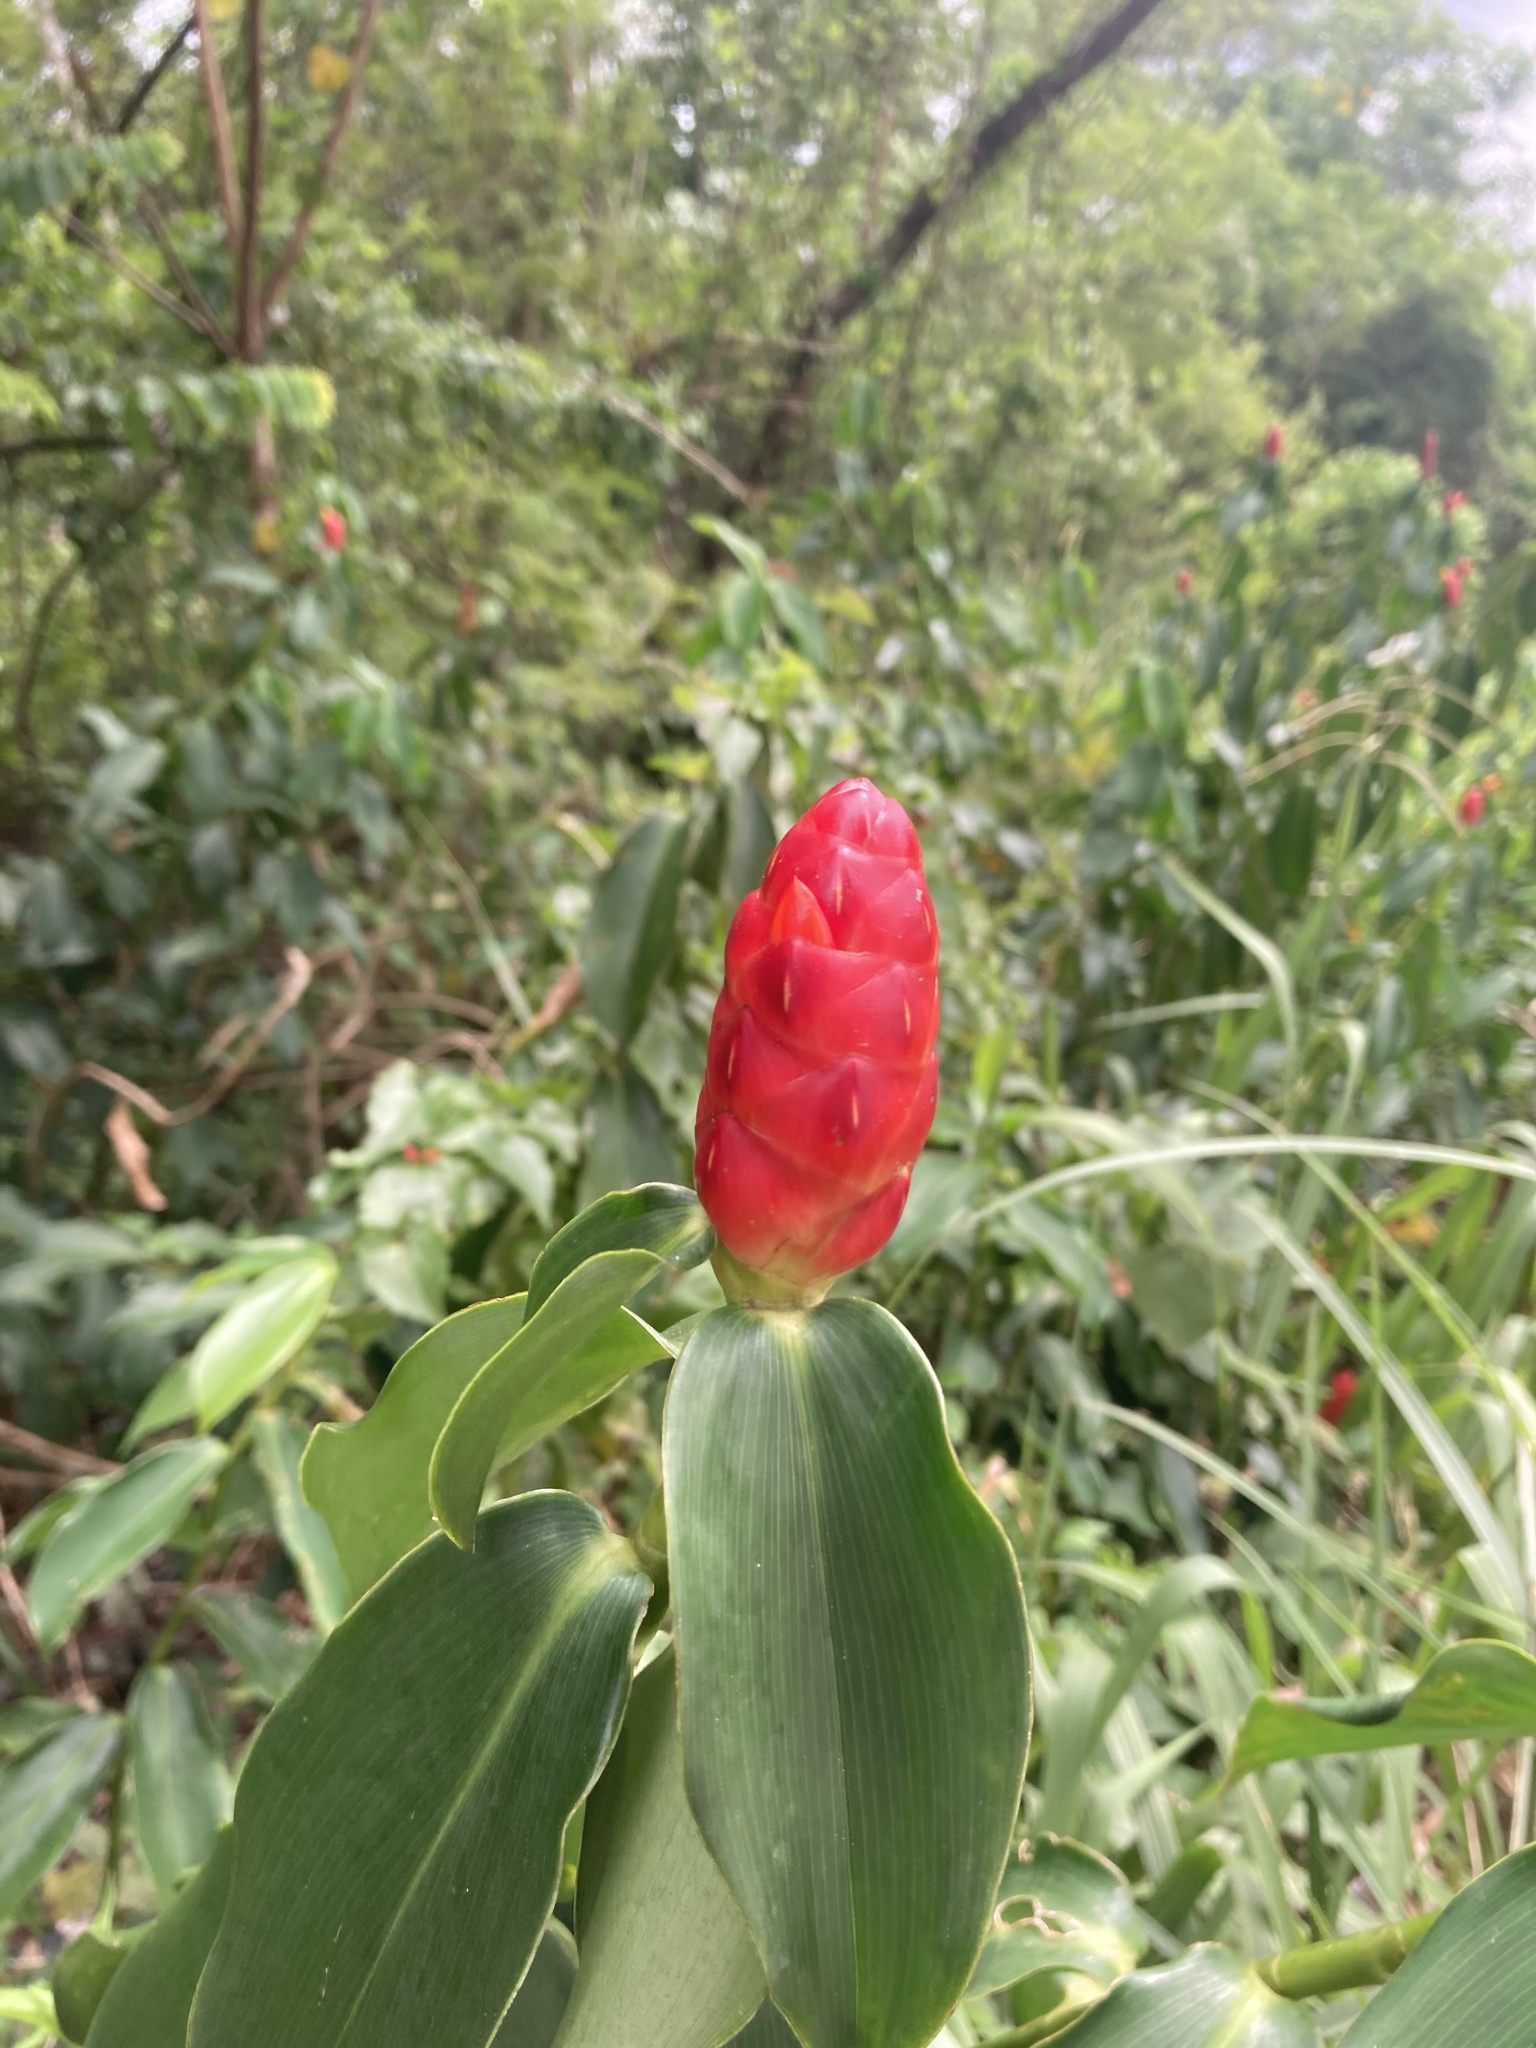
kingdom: Plantae
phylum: Tracheophyta
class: Liliopsida
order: Zingiberales
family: Costaceae
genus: Costus
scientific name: Costus woodsonii
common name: Scarlet spiral-ginger
